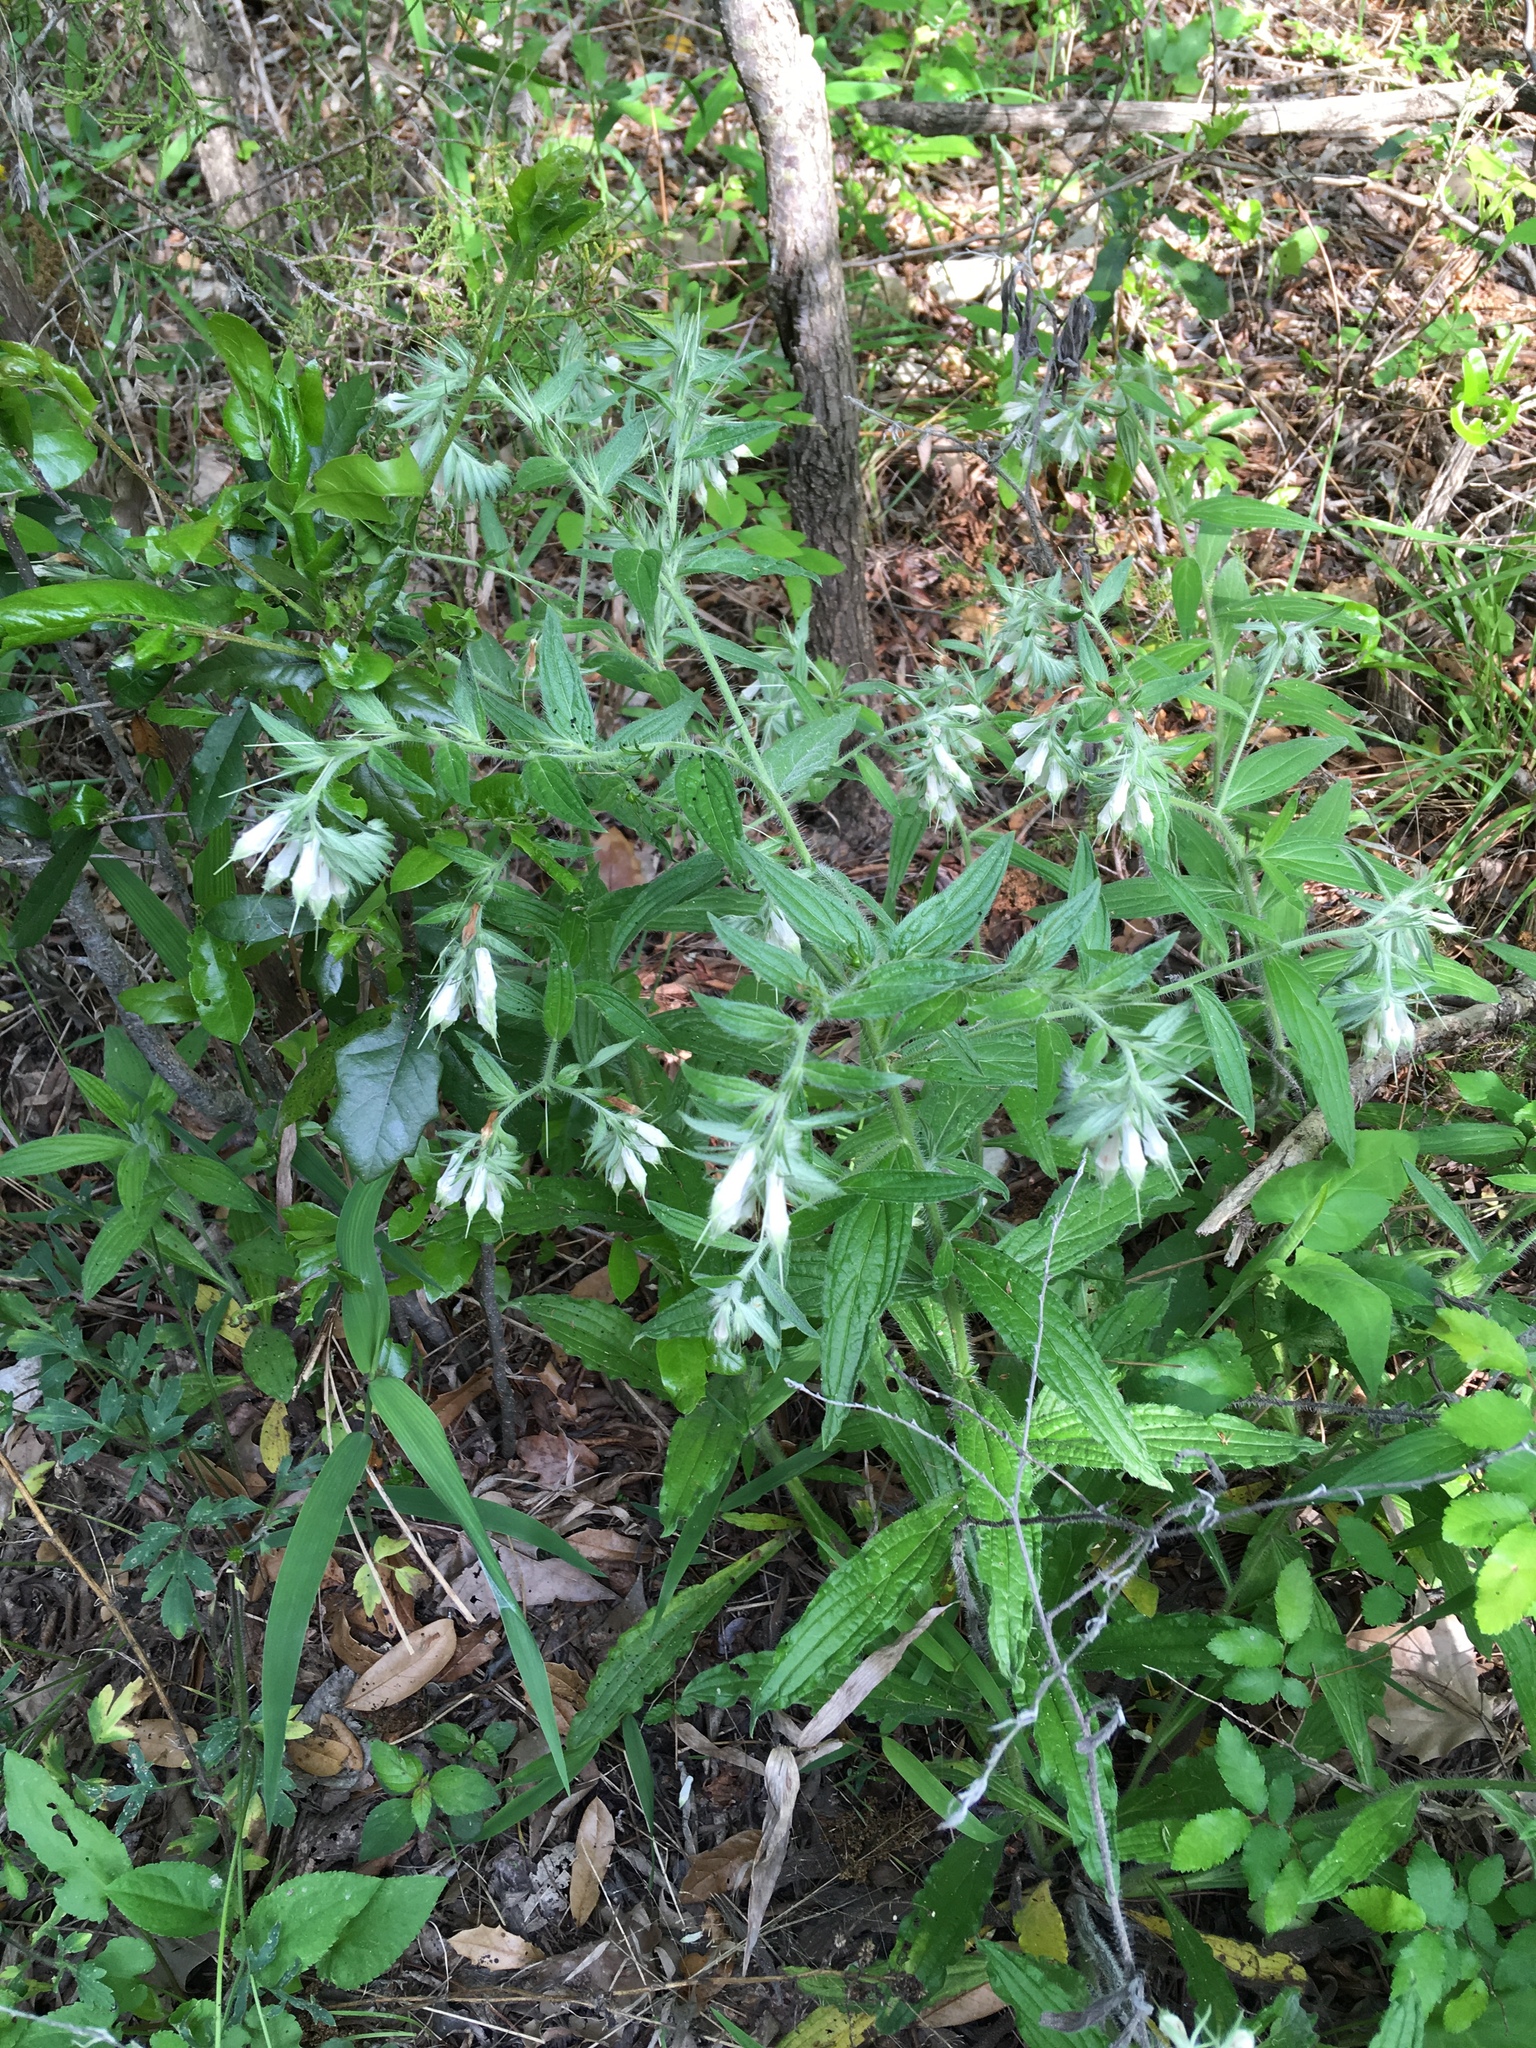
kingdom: Plantae
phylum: Tracheophyta
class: Magnoliopsida
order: Boraginales
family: Boraginaceae
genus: Lithospermum
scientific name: Lithospermum caroliniense
